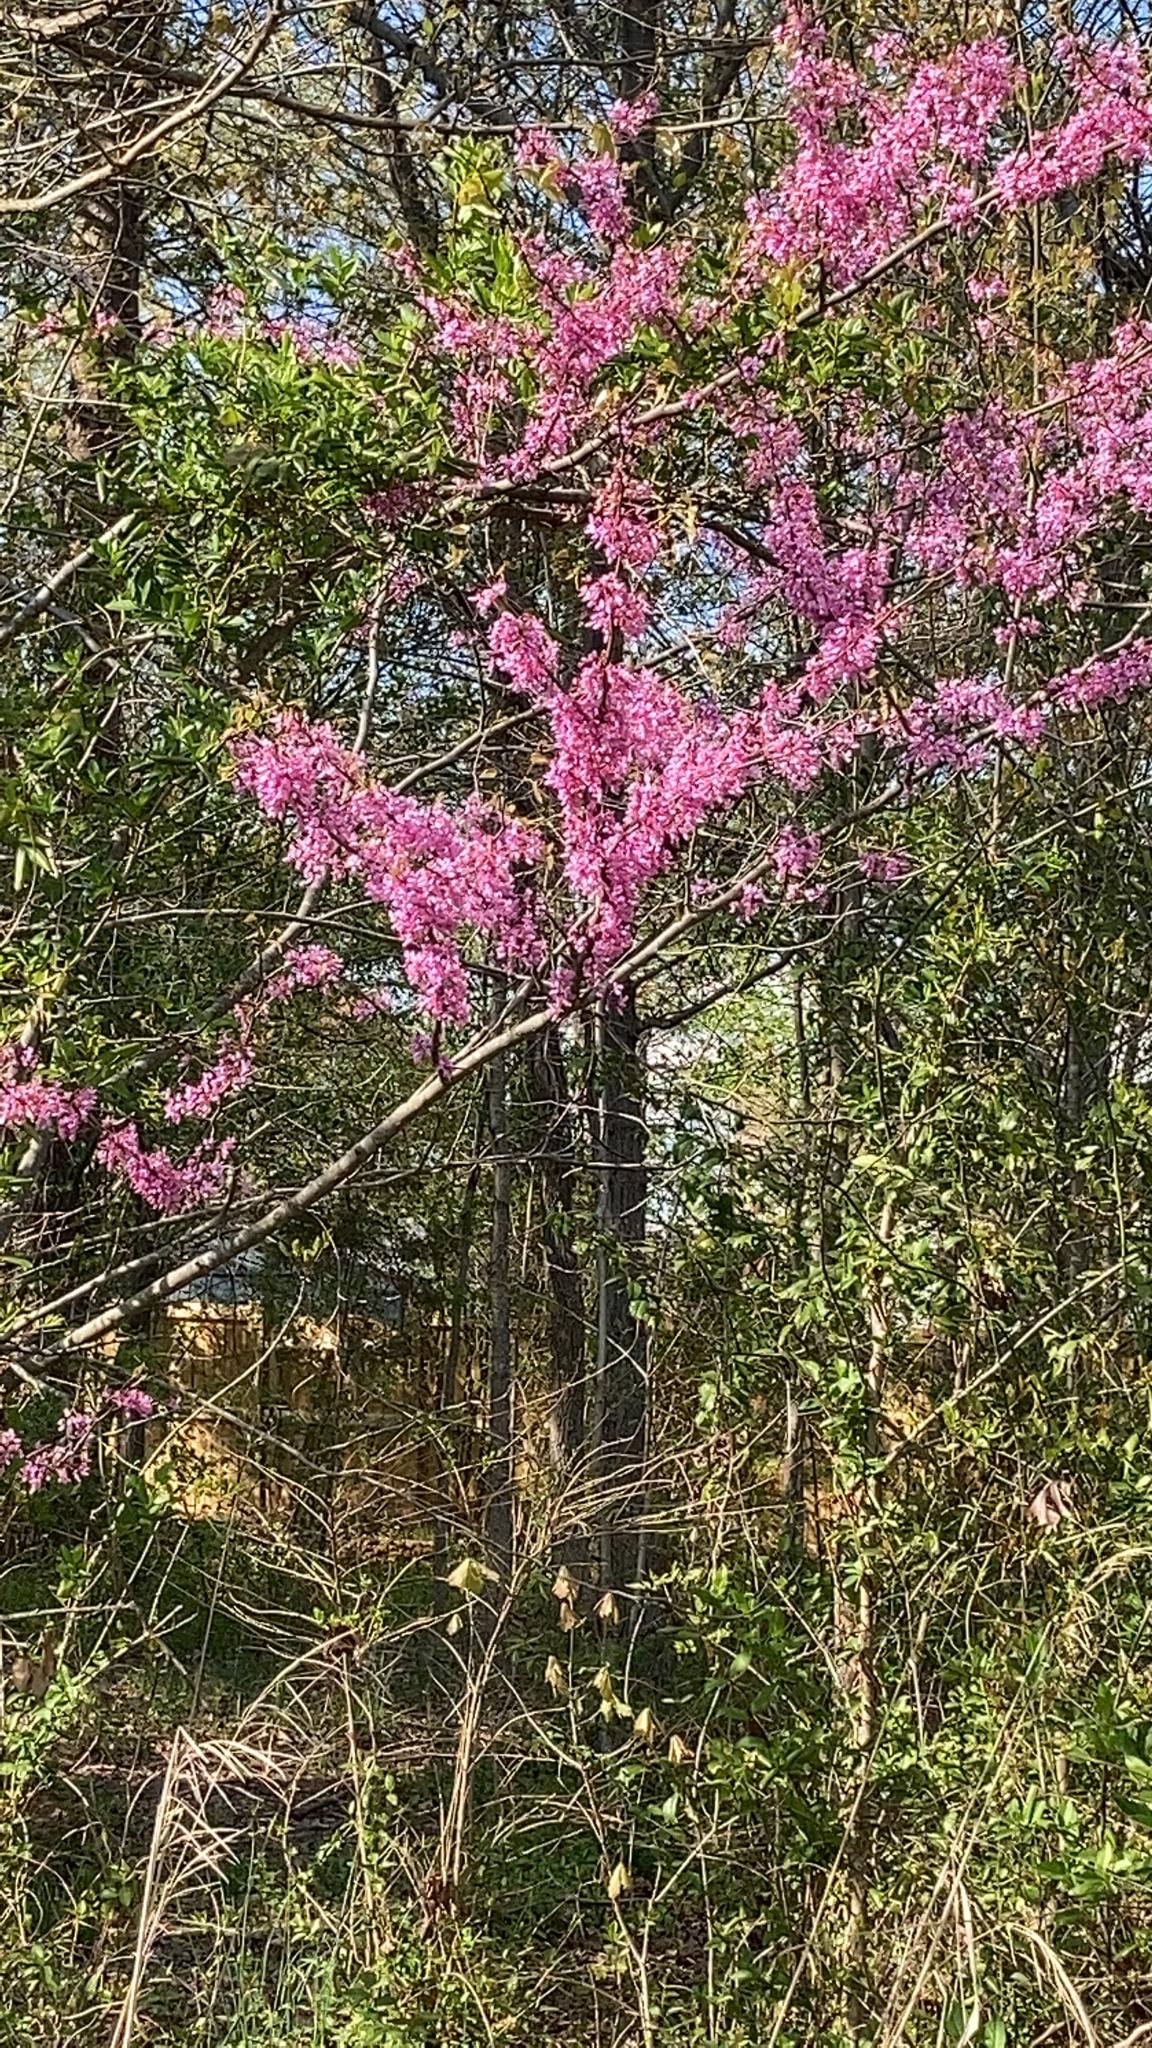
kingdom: Plantae
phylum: Tracheophyta
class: Magnoliopsida
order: Fabales
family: Fabaceae
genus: Cercis
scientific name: Cercis canadensis
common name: Eastern redbud
